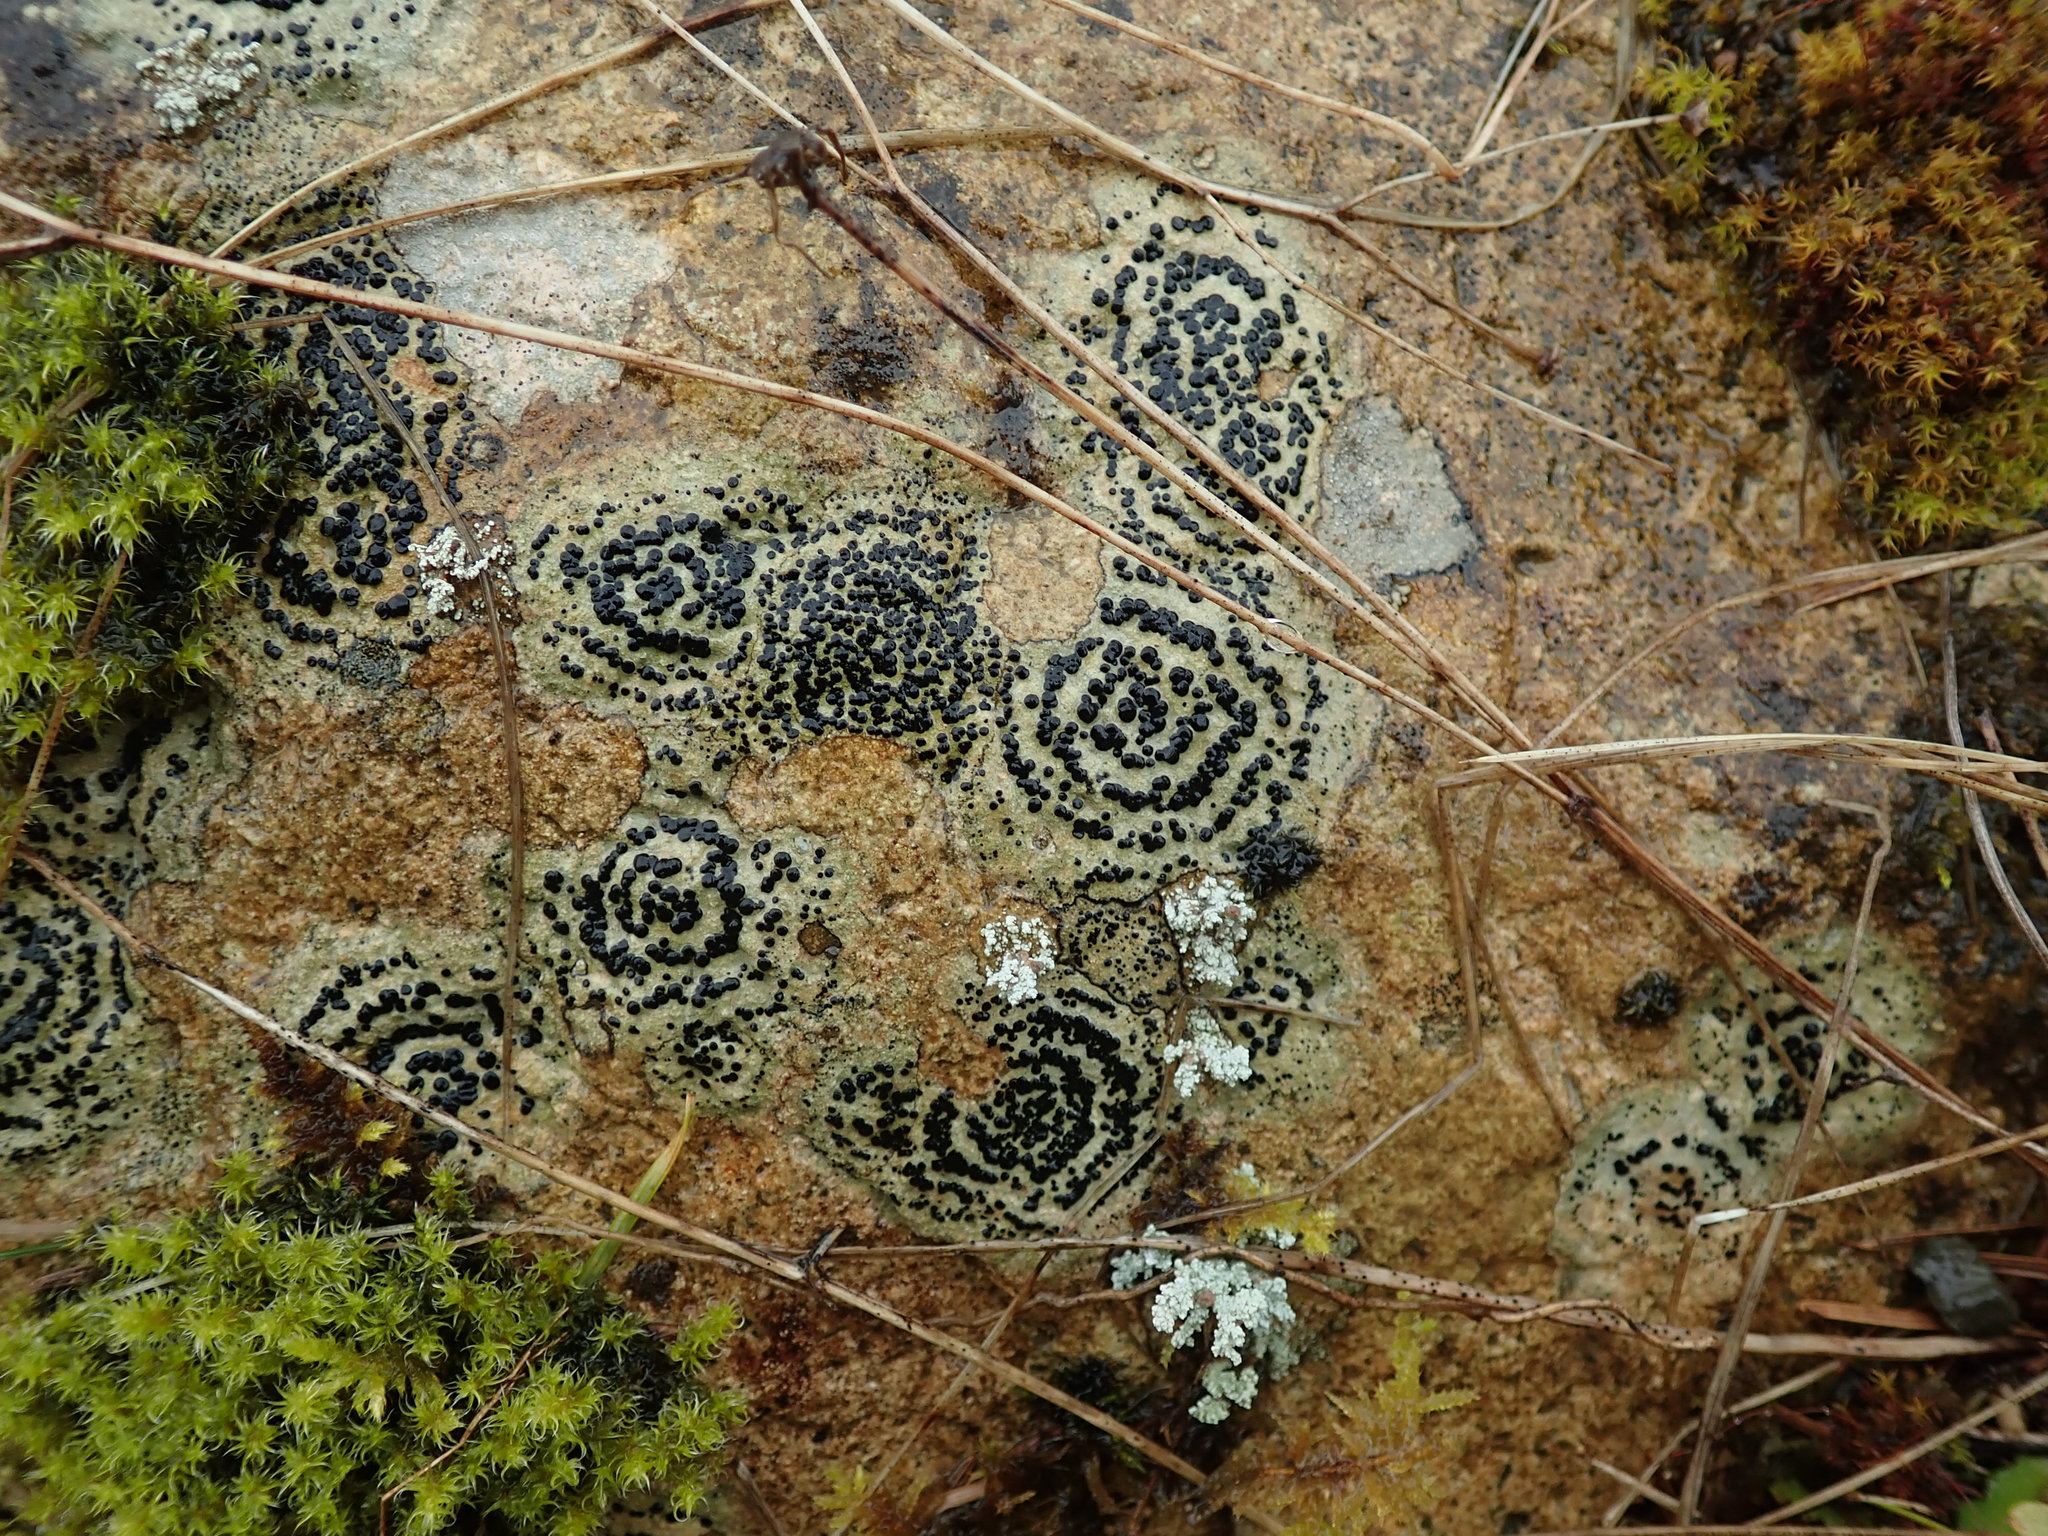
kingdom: Fungi
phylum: Ascomycota
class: Lecanoromycetes
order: Lecideales
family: Lecideaceae
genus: Porpidia
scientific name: Porpidia crustulata
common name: Concentric boulder lichen
